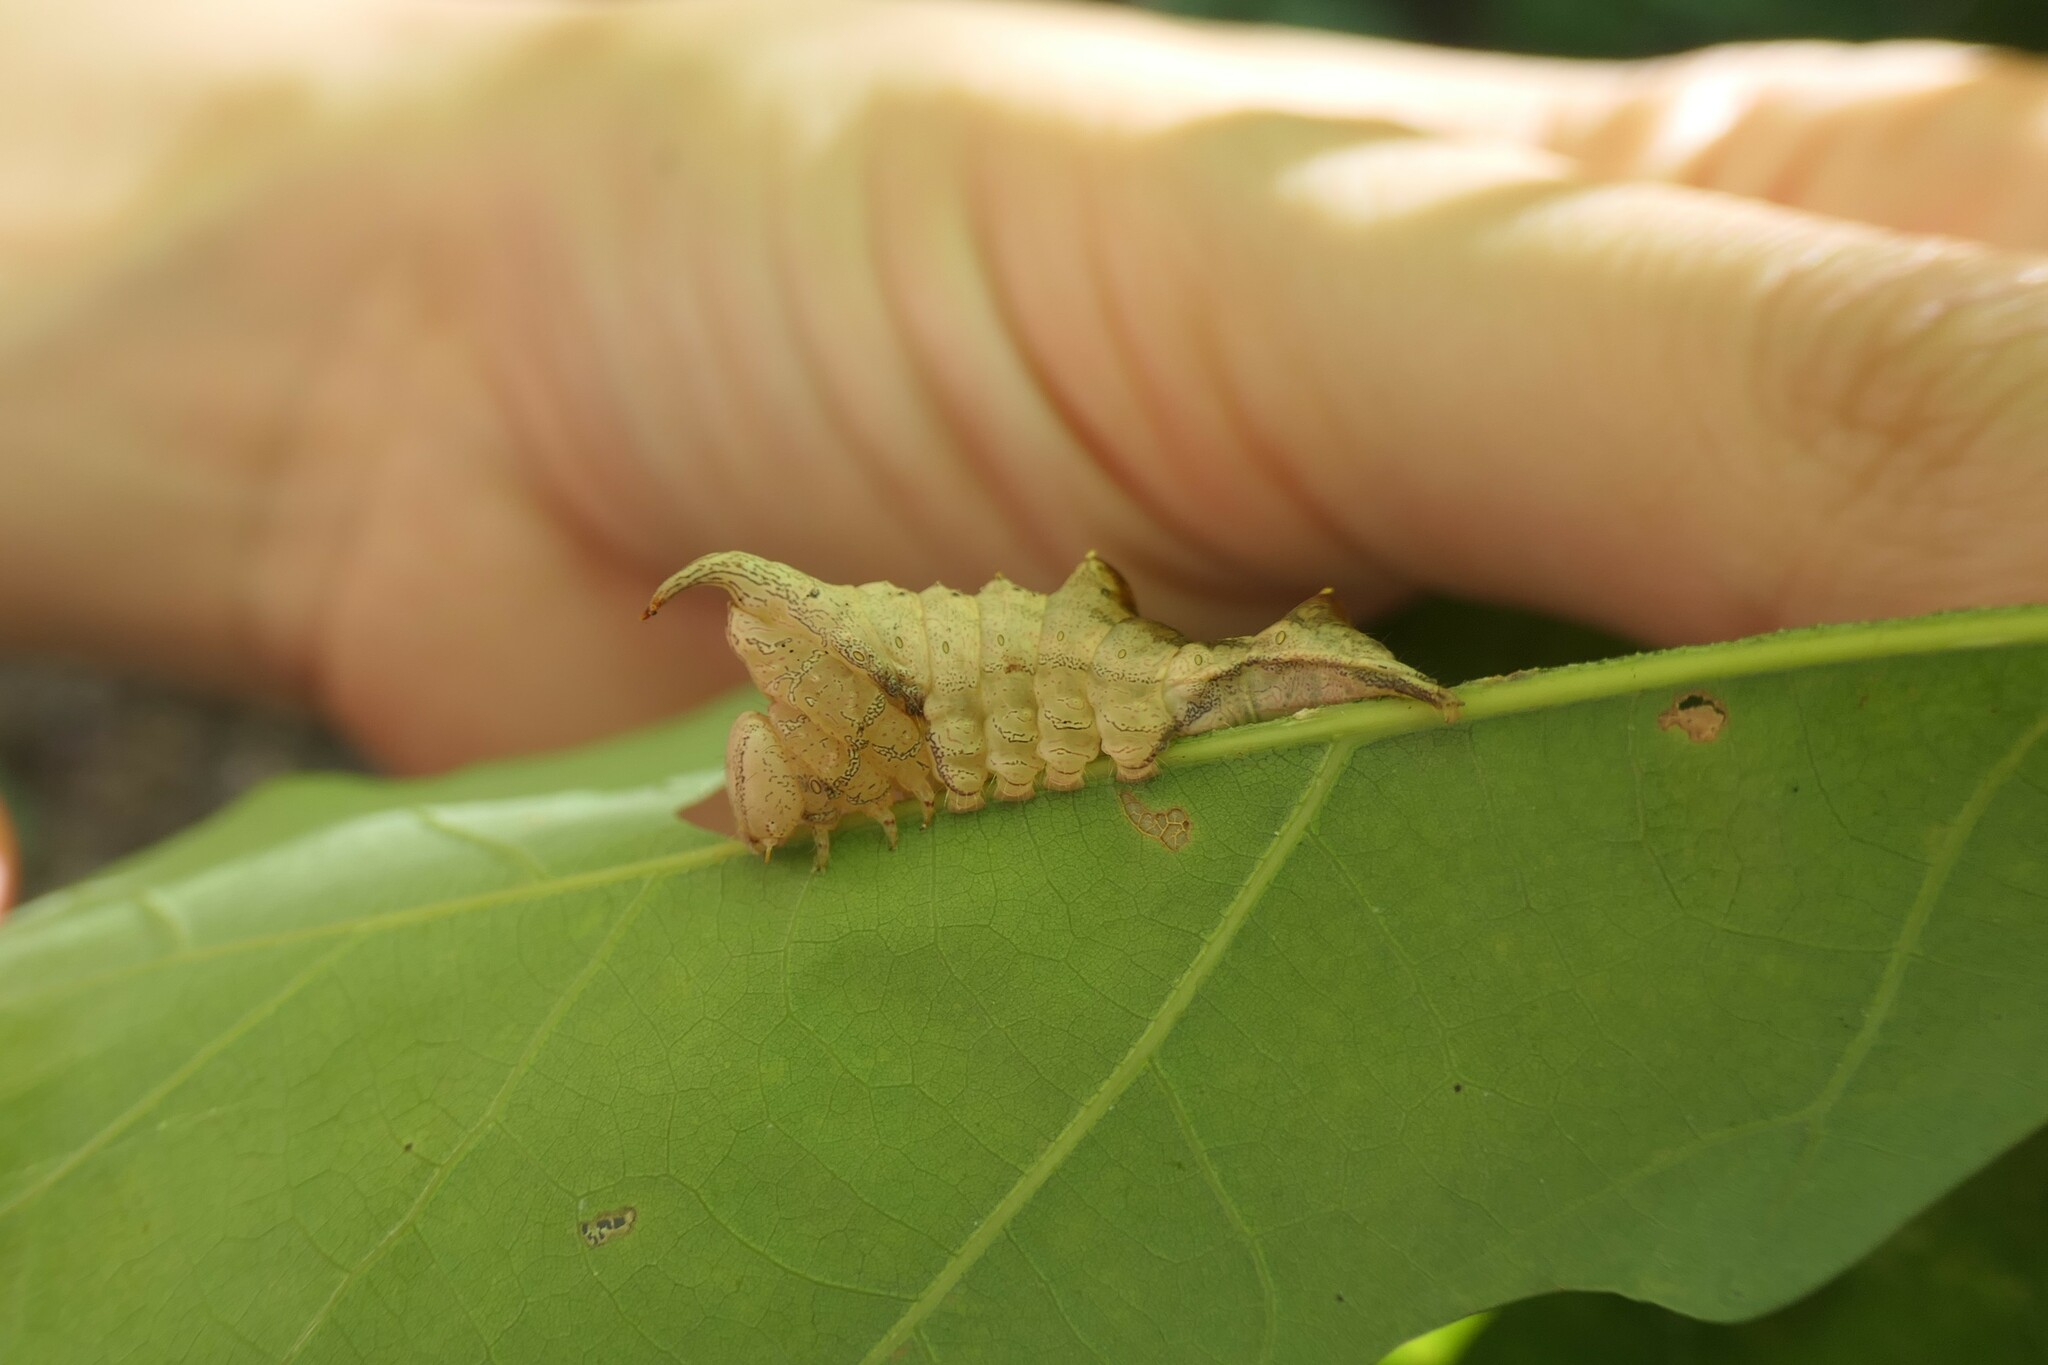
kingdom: Animalia
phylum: Arthropoda
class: Insecta
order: Lepidoptera
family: Notodontidae
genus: Schizura
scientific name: Schizura
